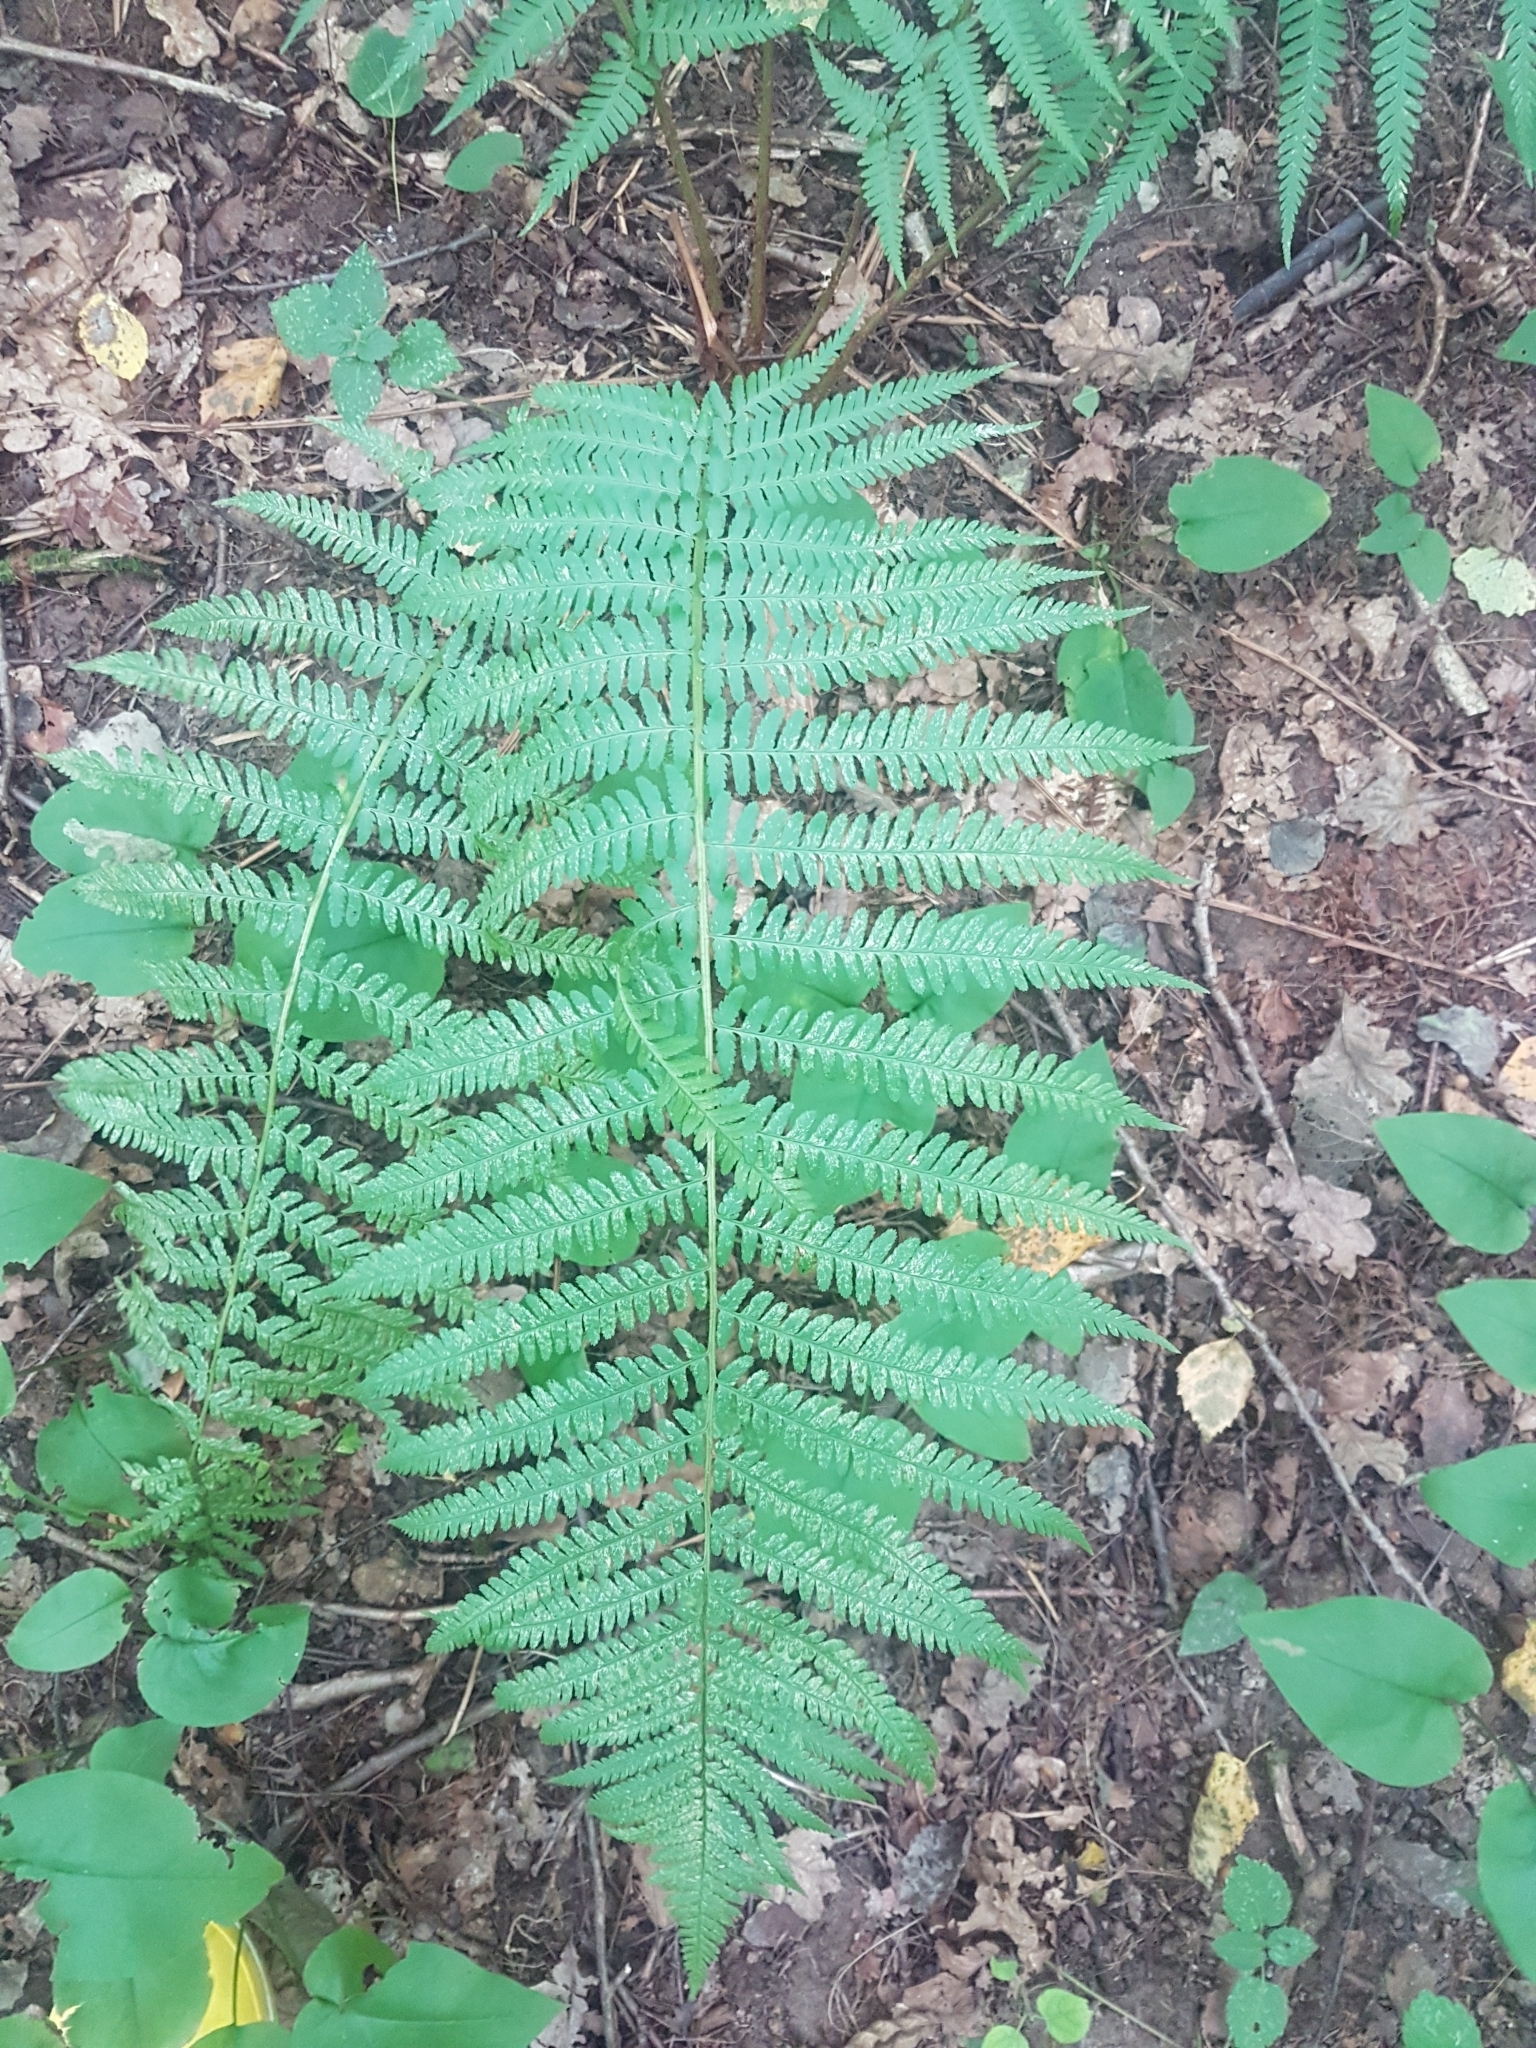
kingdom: Plantae
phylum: Tracheophyta
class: Polypodiopsida
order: Polypodiales
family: Dryopteridaceae
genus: Dryopteris
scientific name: Dryopteris filix-mas
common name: Male fern
